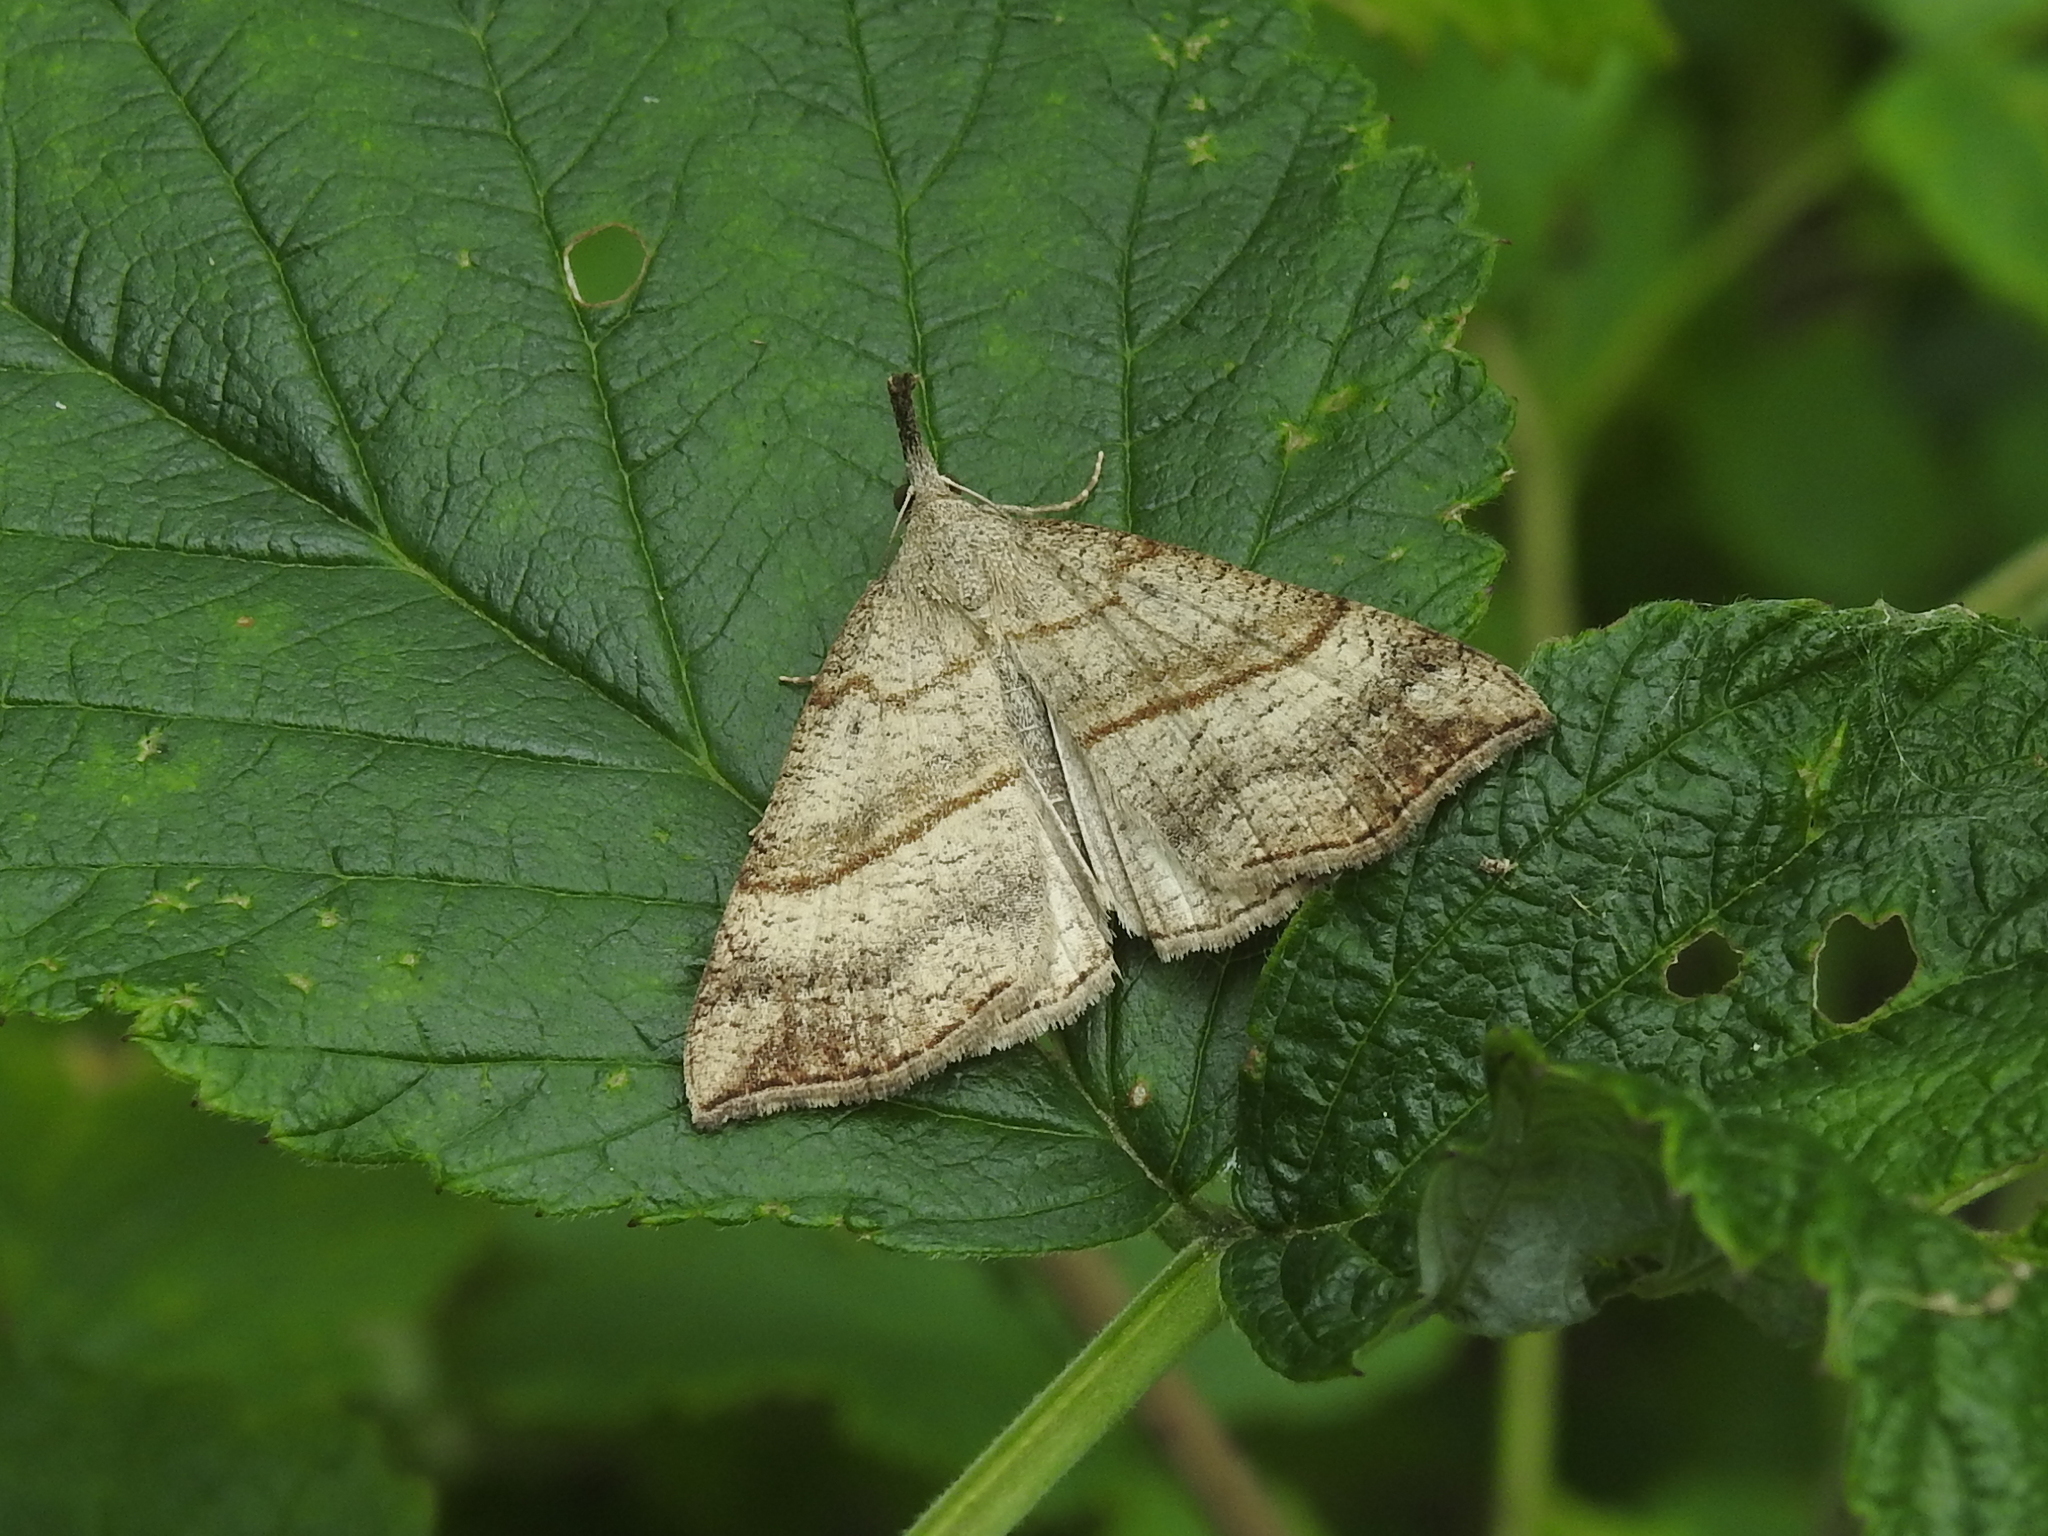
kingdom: Animalia
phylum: Arthropoda
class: Insecta
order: Lepidoptera
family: Erebidae
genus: Hypena
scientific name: Hypena proboscidalis
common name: Snout
